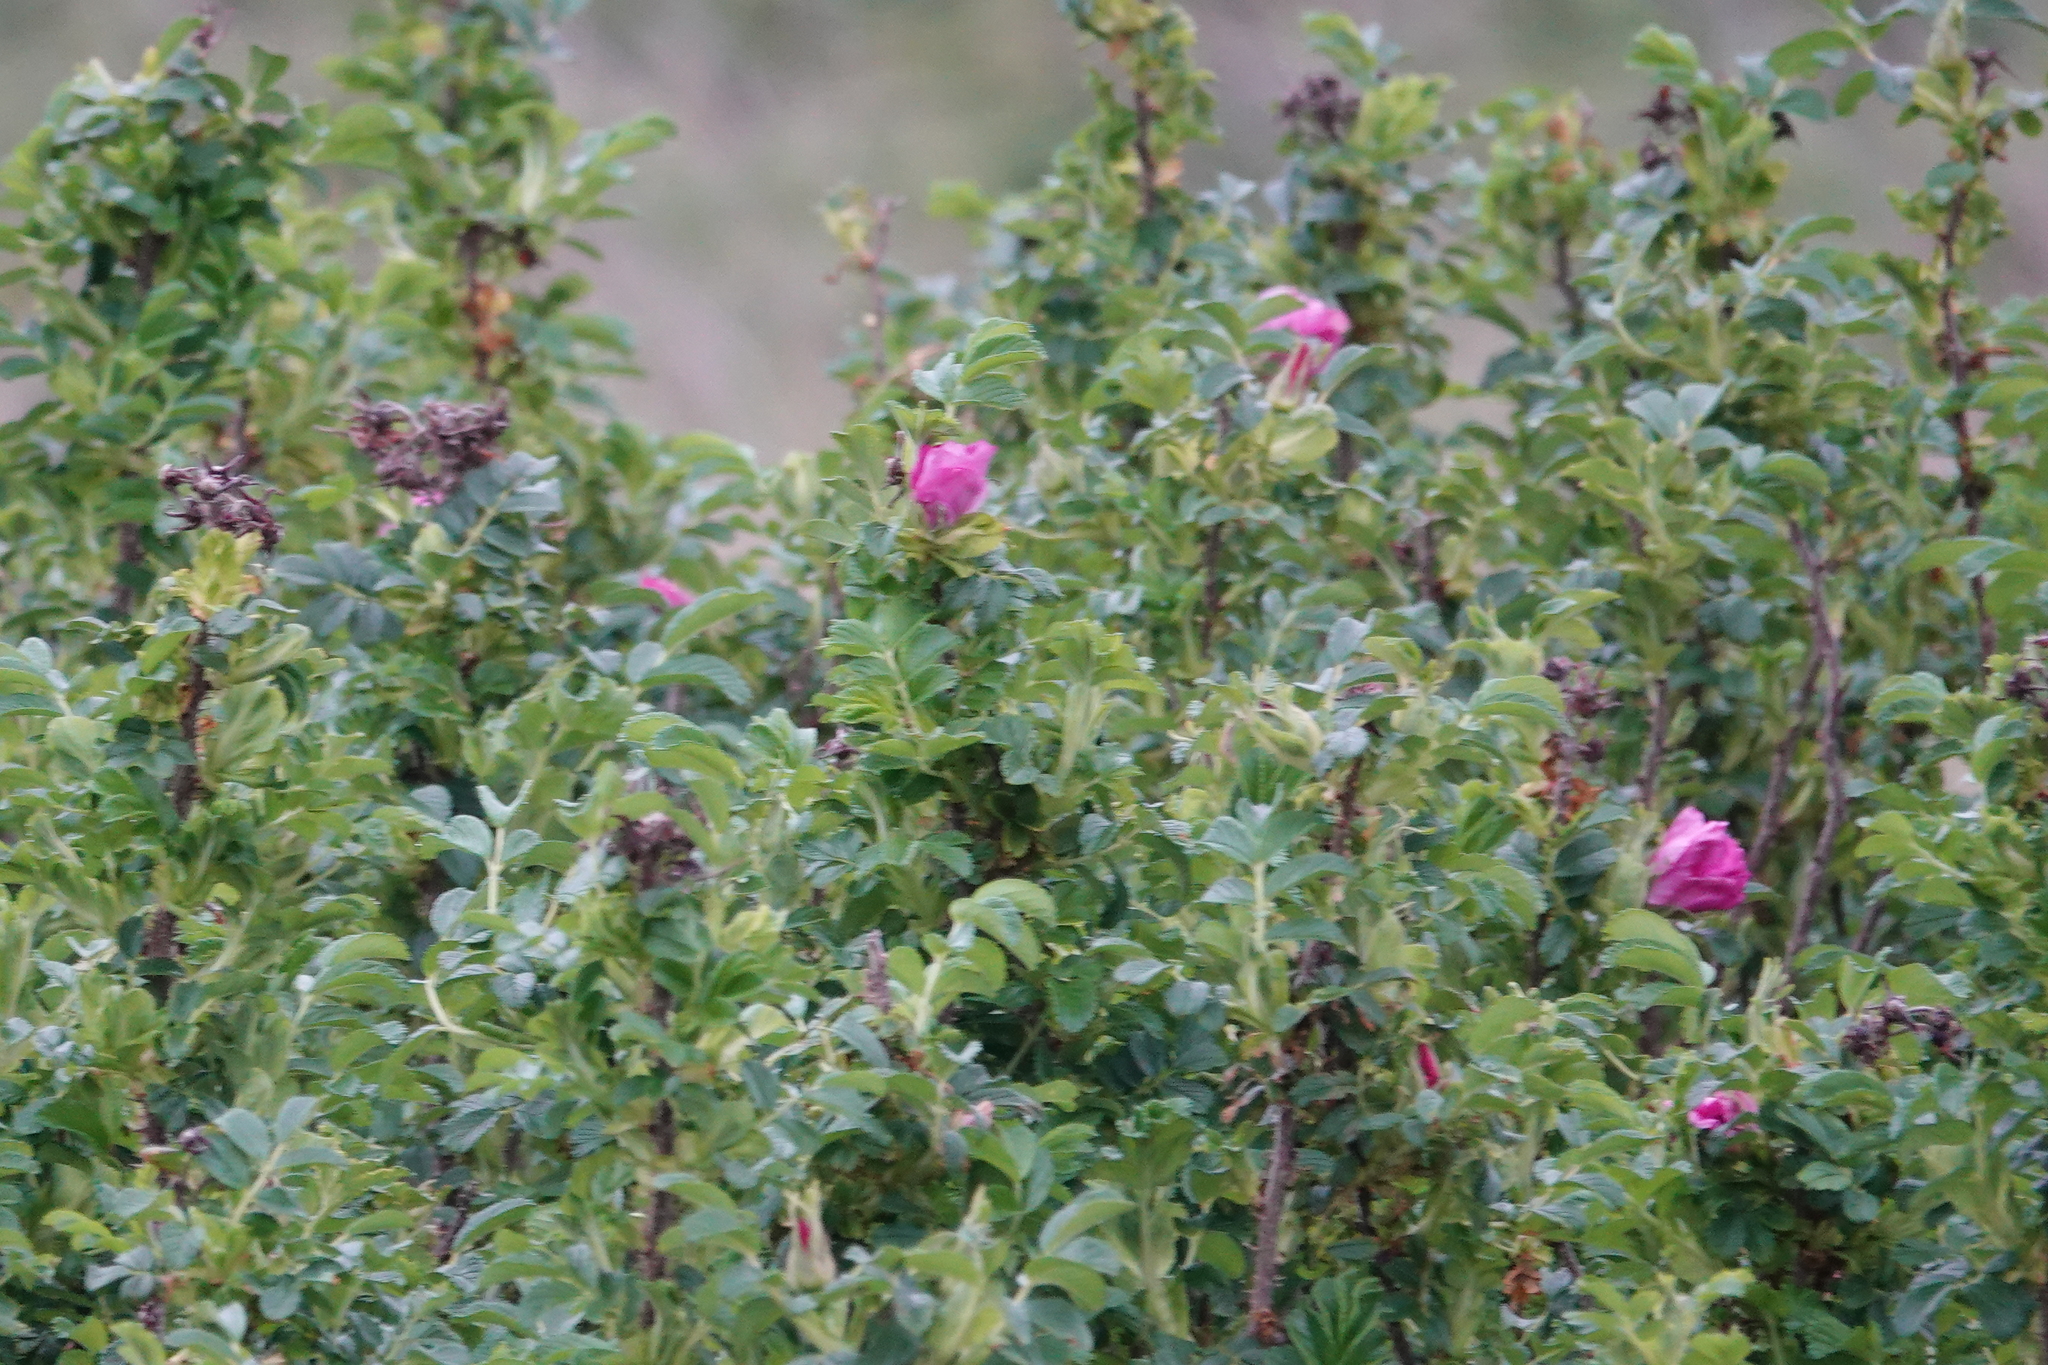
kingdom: Plantae
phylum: Tracheophyta
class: Magnoliopsida
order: Rosales
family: Rosaceae
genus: Rosa
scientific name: Rosa rugosa
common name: Japanese rose
